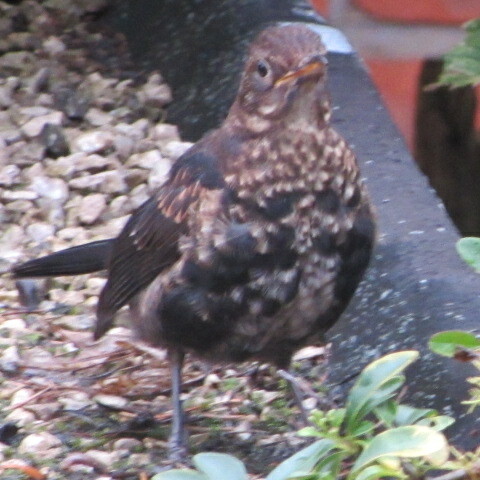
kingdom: Animalia
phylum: Chordata
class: Aves
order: Passeriformes
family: Turdidae
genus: Turdus
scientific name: Turdus merula
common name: Common blackbird
